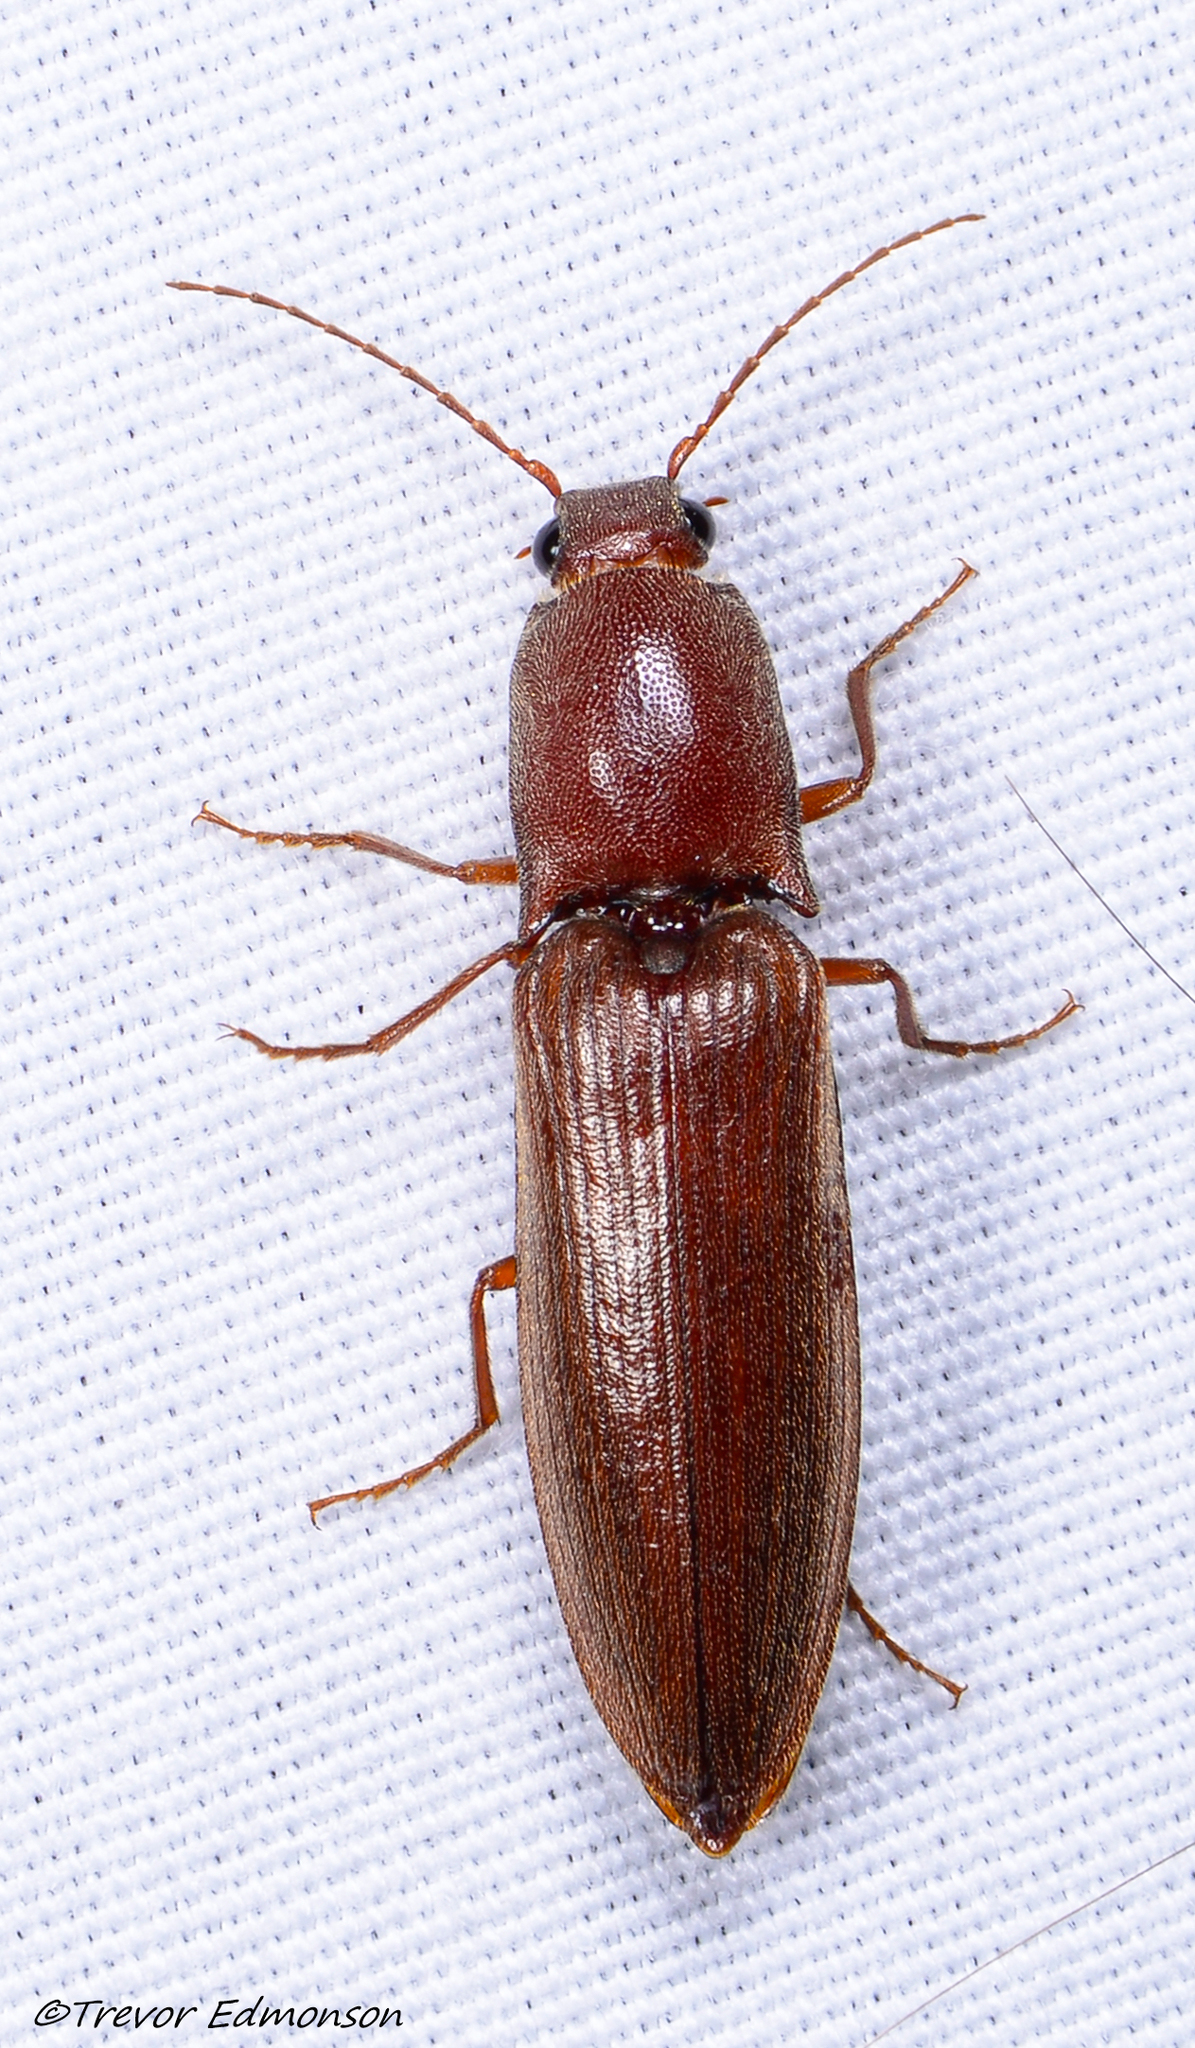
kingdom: Animalia
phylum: Arthropoda
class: Insecta
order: Coleoptera
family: Elateridae
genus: Proludius
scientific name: Proludius pyrros
